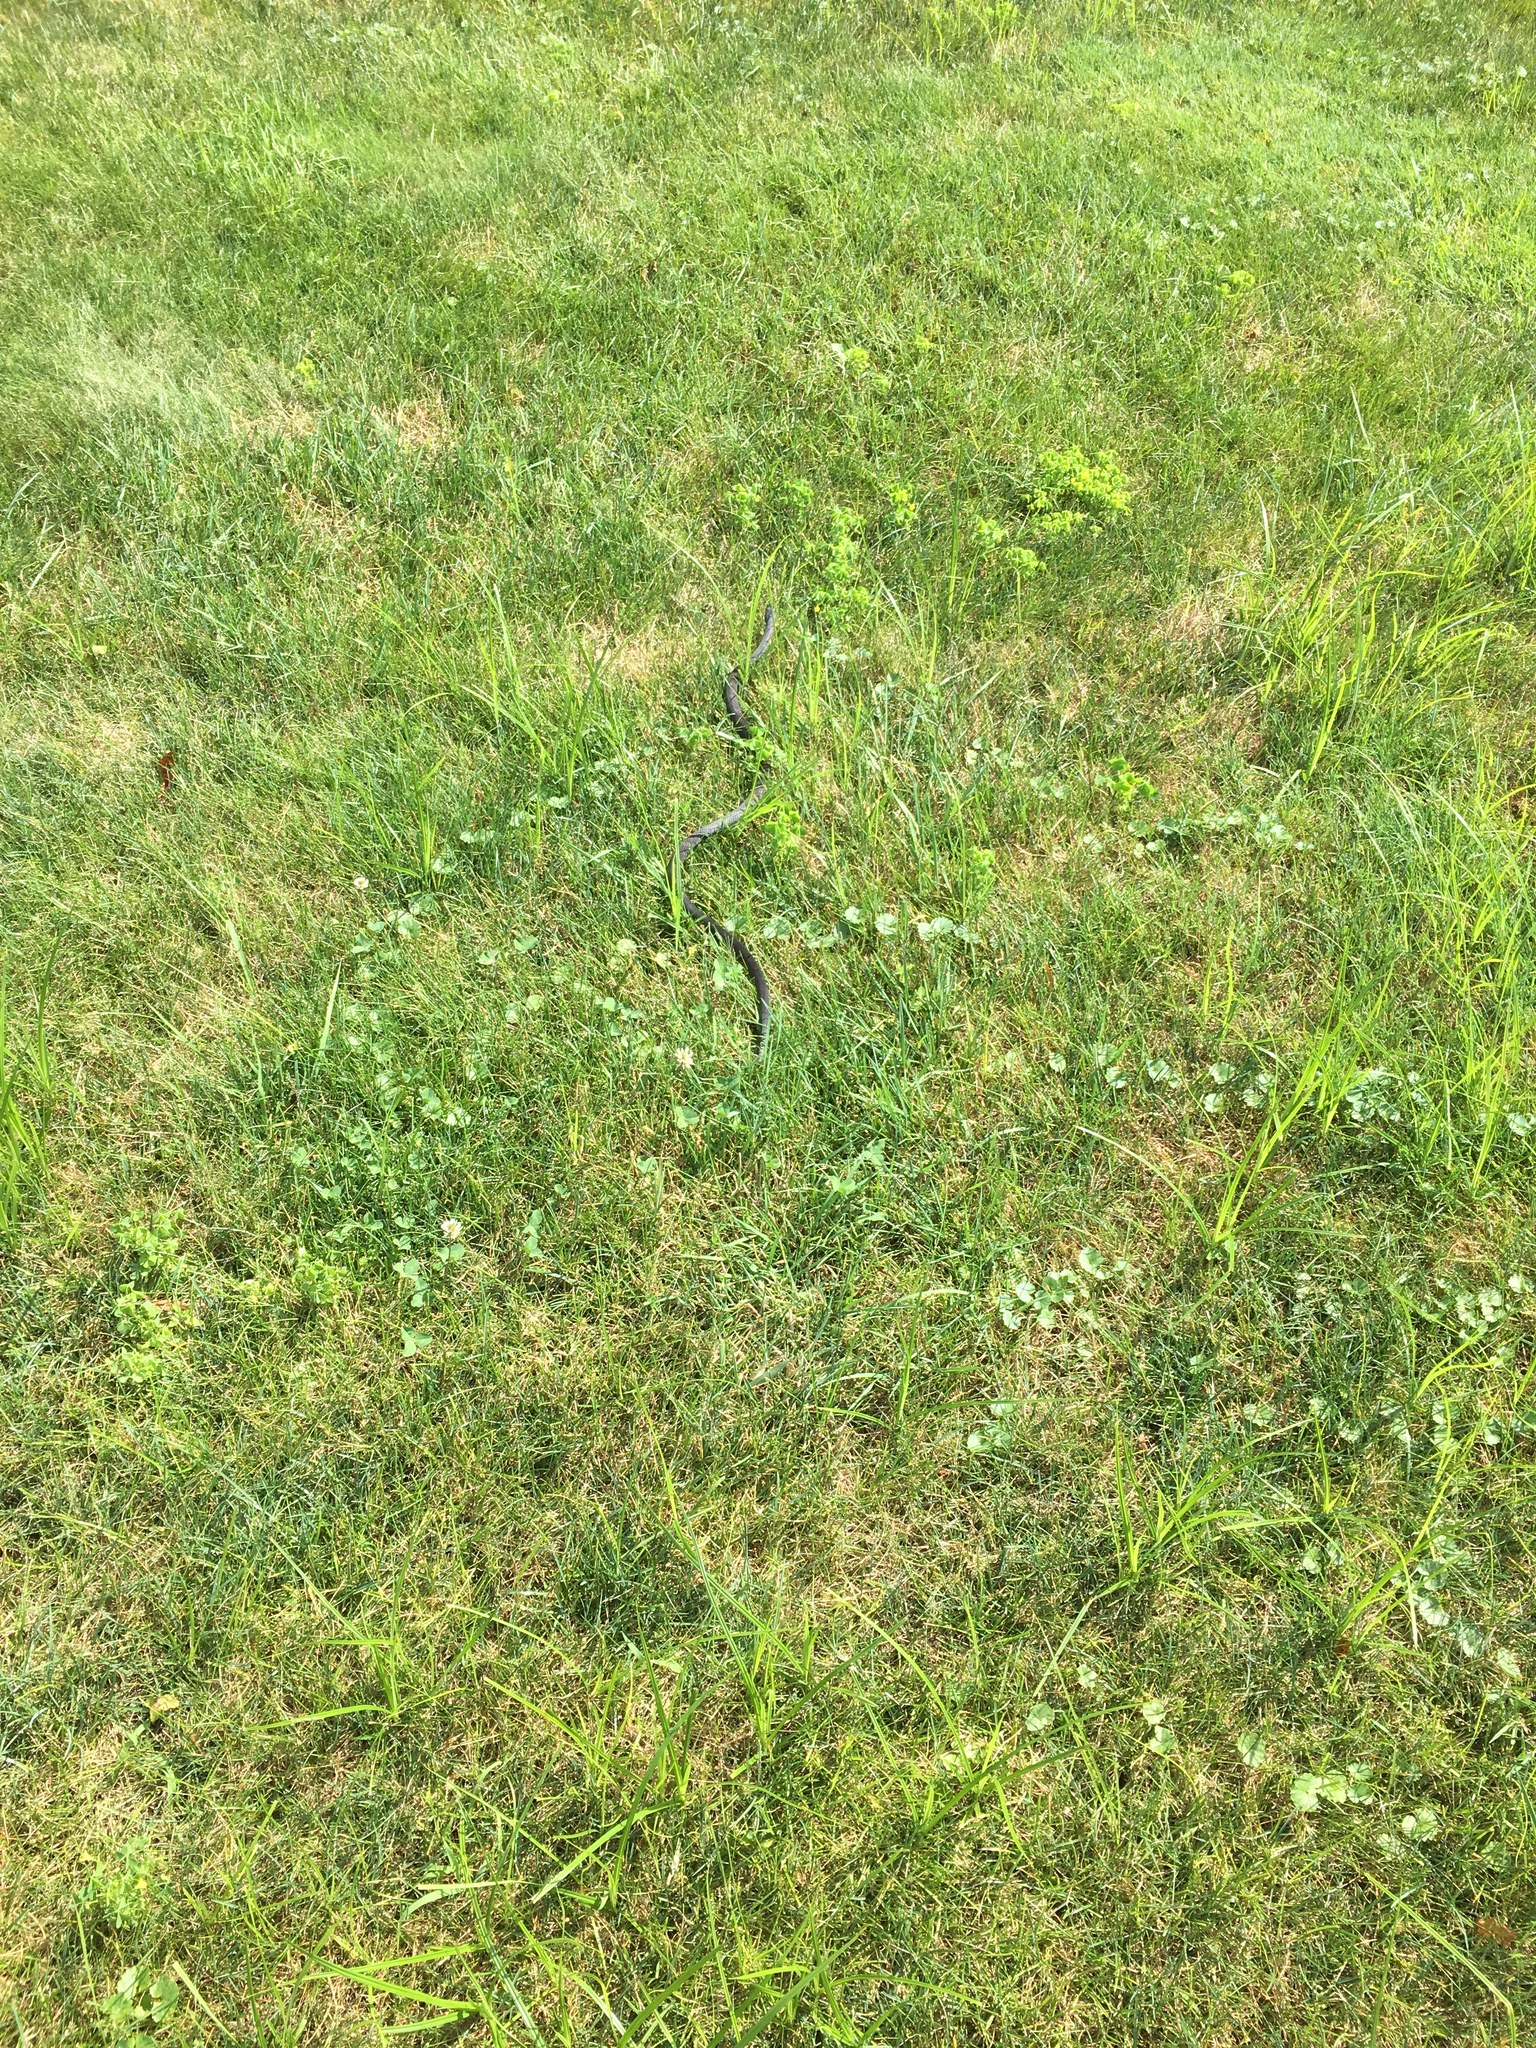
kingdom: Animalia
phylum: Chordata
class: Squamata
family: Colubridae
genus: Pantherophis
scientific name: Pantherophis spiloides
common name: Gray rat snake
